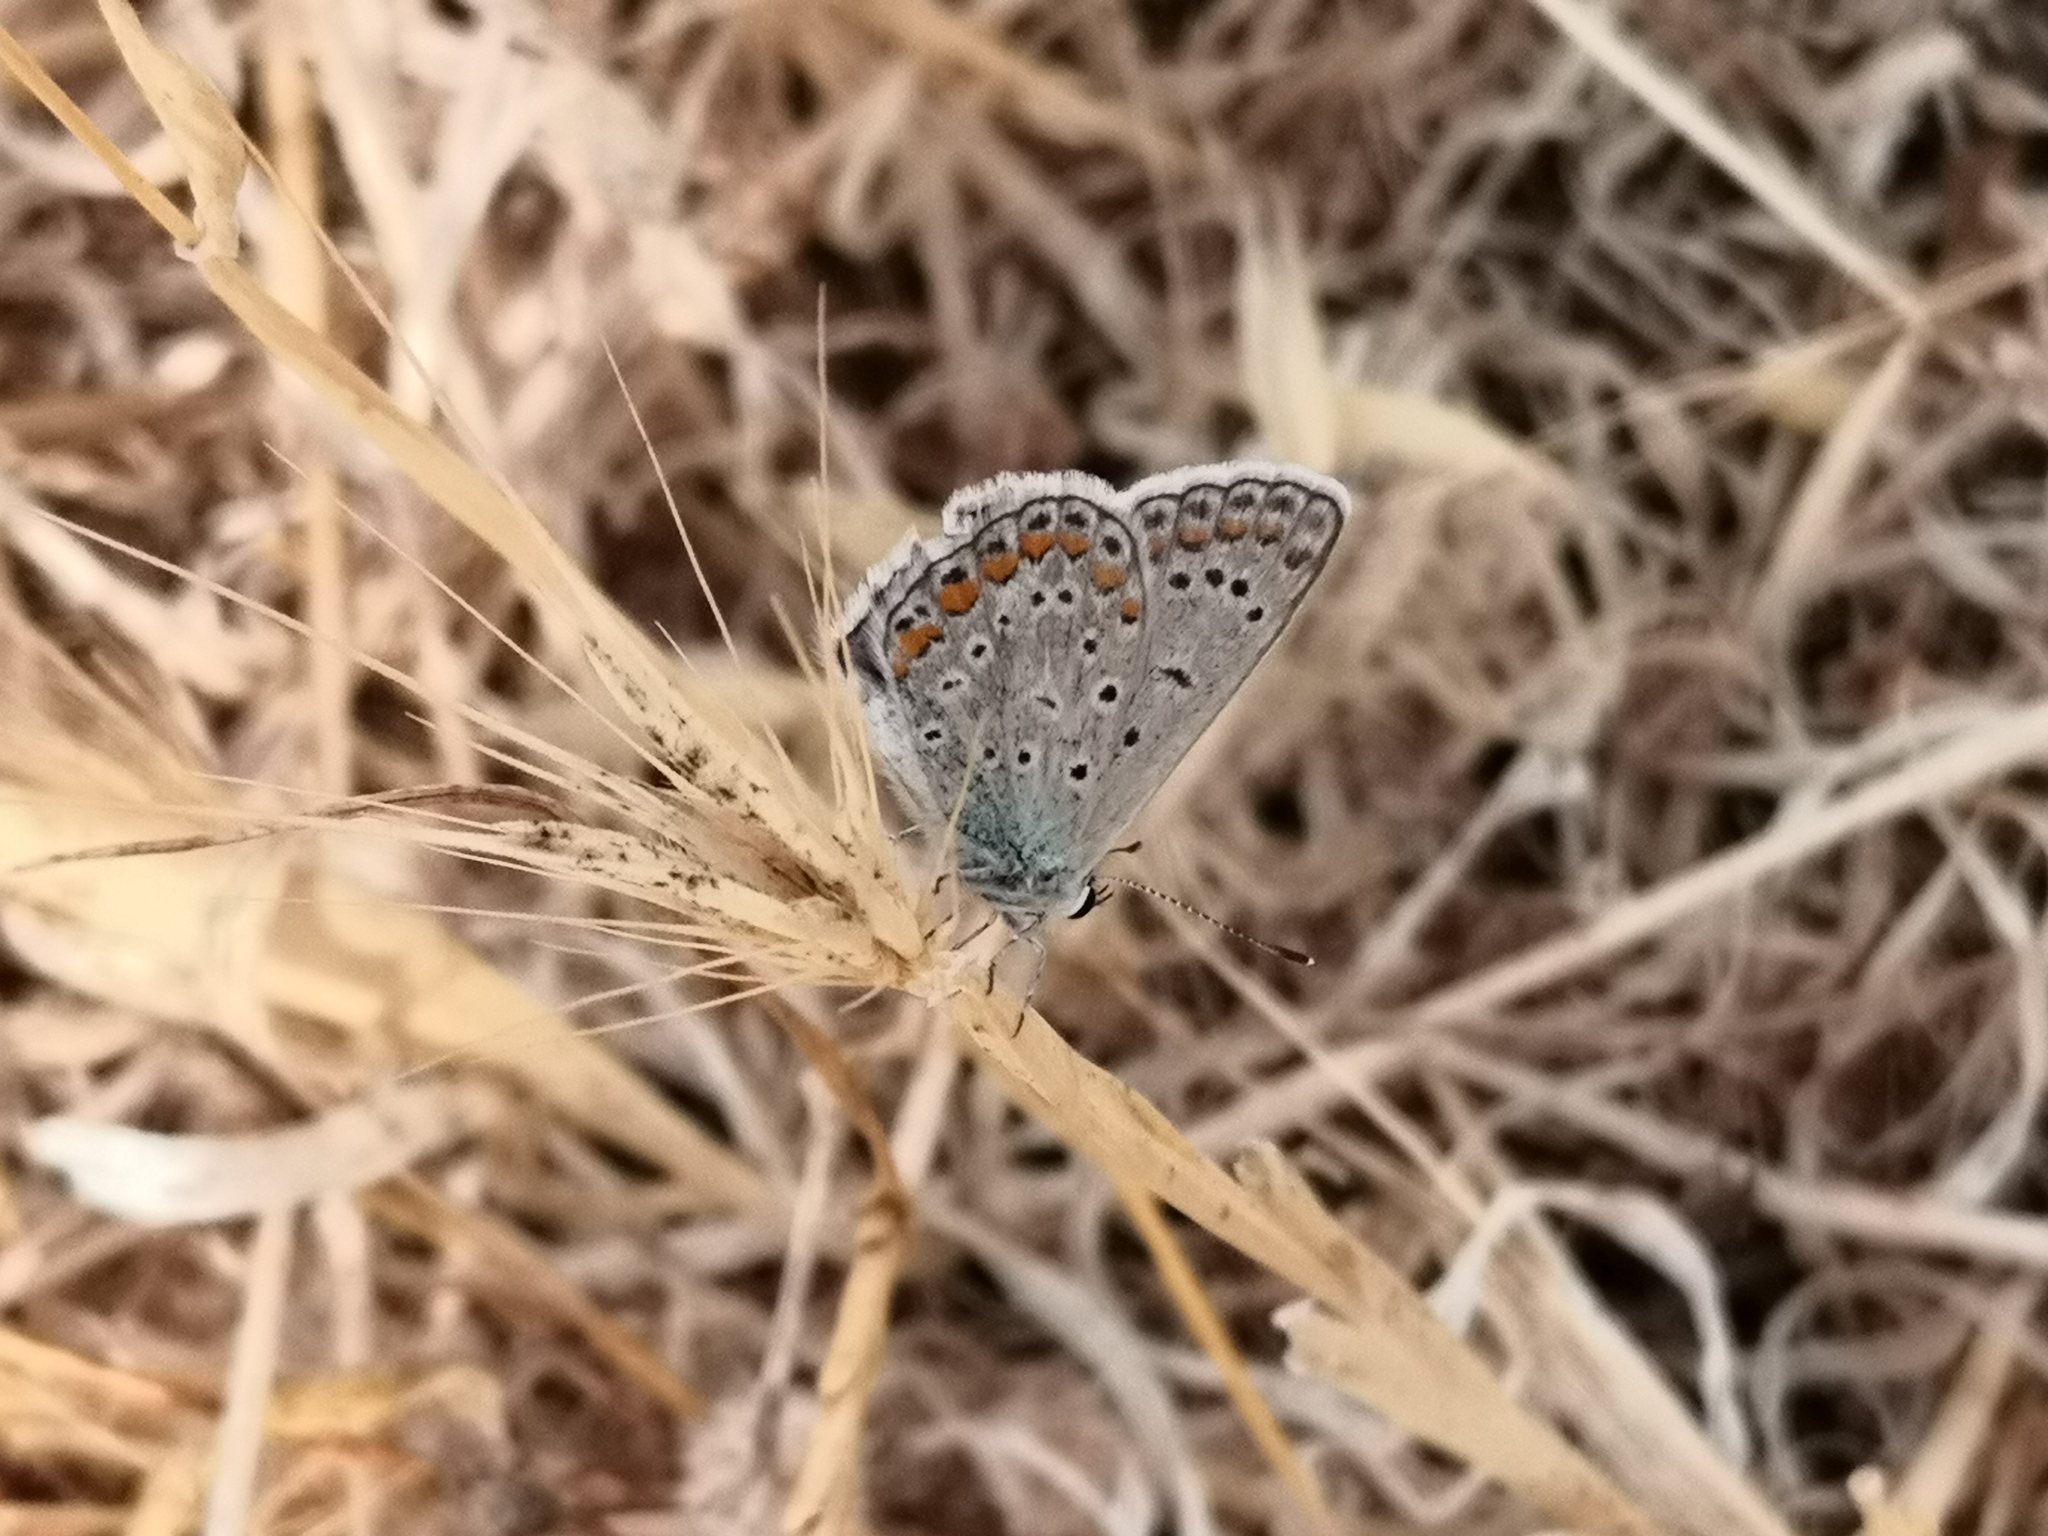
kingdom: Animalia
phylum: Arthropoda
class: Insecta
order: Lepidoptera
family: Lycaenidae
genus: Polyommatus
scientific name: Polyommatus icarus
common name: Common blue
